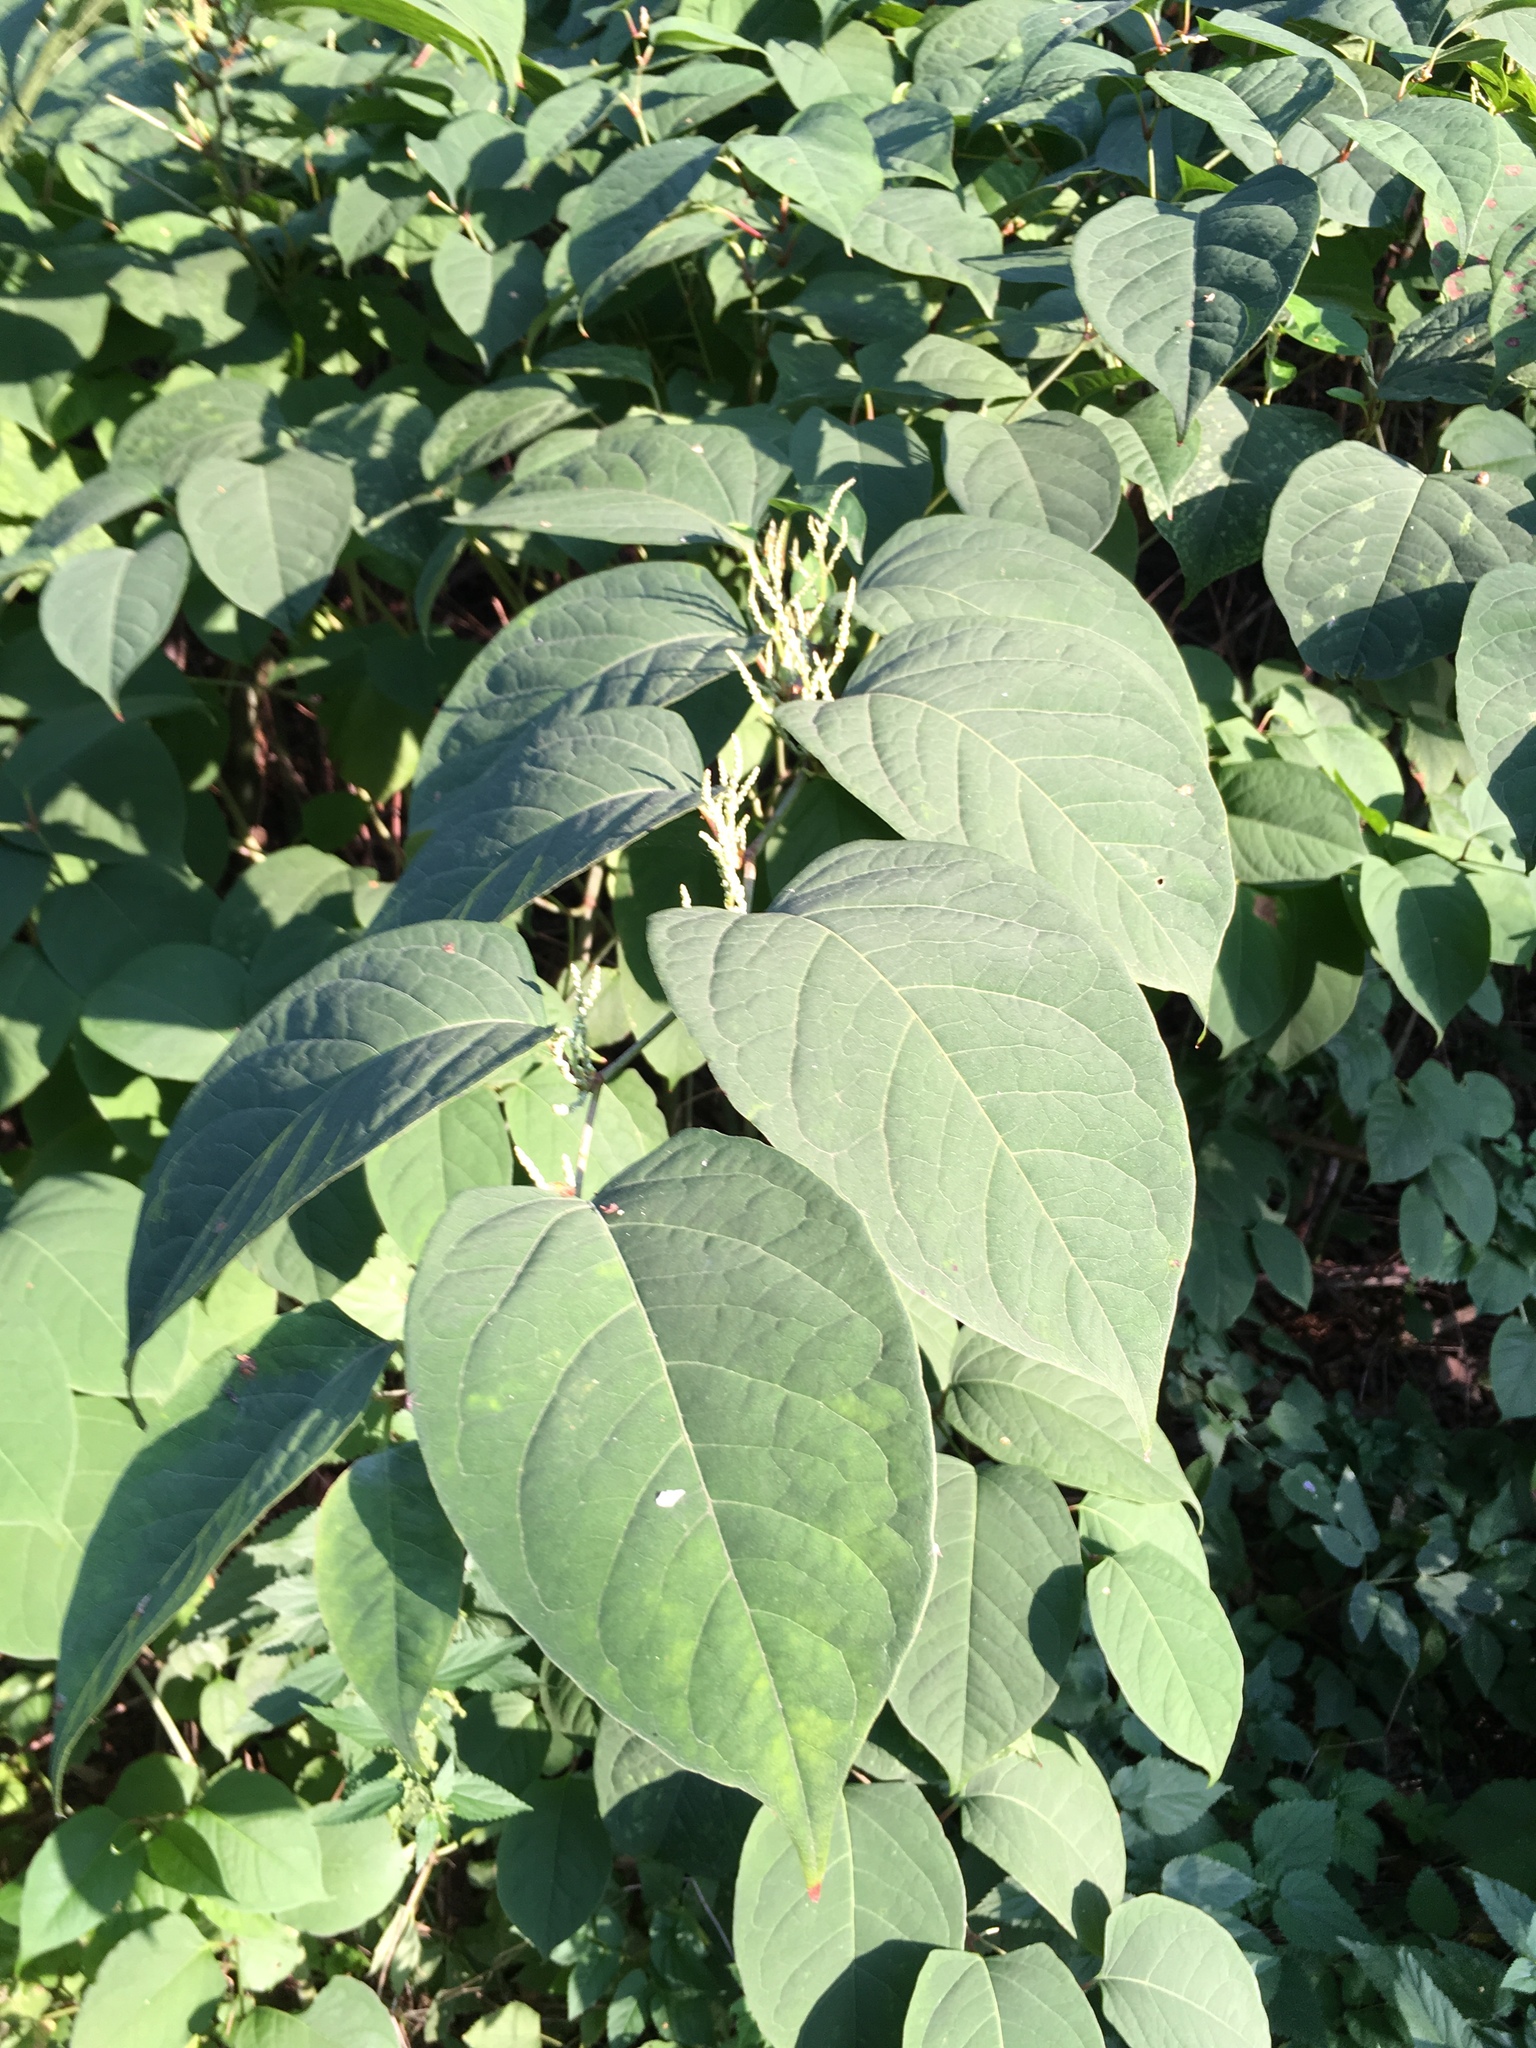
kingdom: Plantae
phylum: Tracheophyta
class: Magnoliopsida
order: Caryophyllales
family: Polygonaceae
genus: Reynoutria
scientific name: Reynoutria bohemica
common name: Bohemian knotweed
